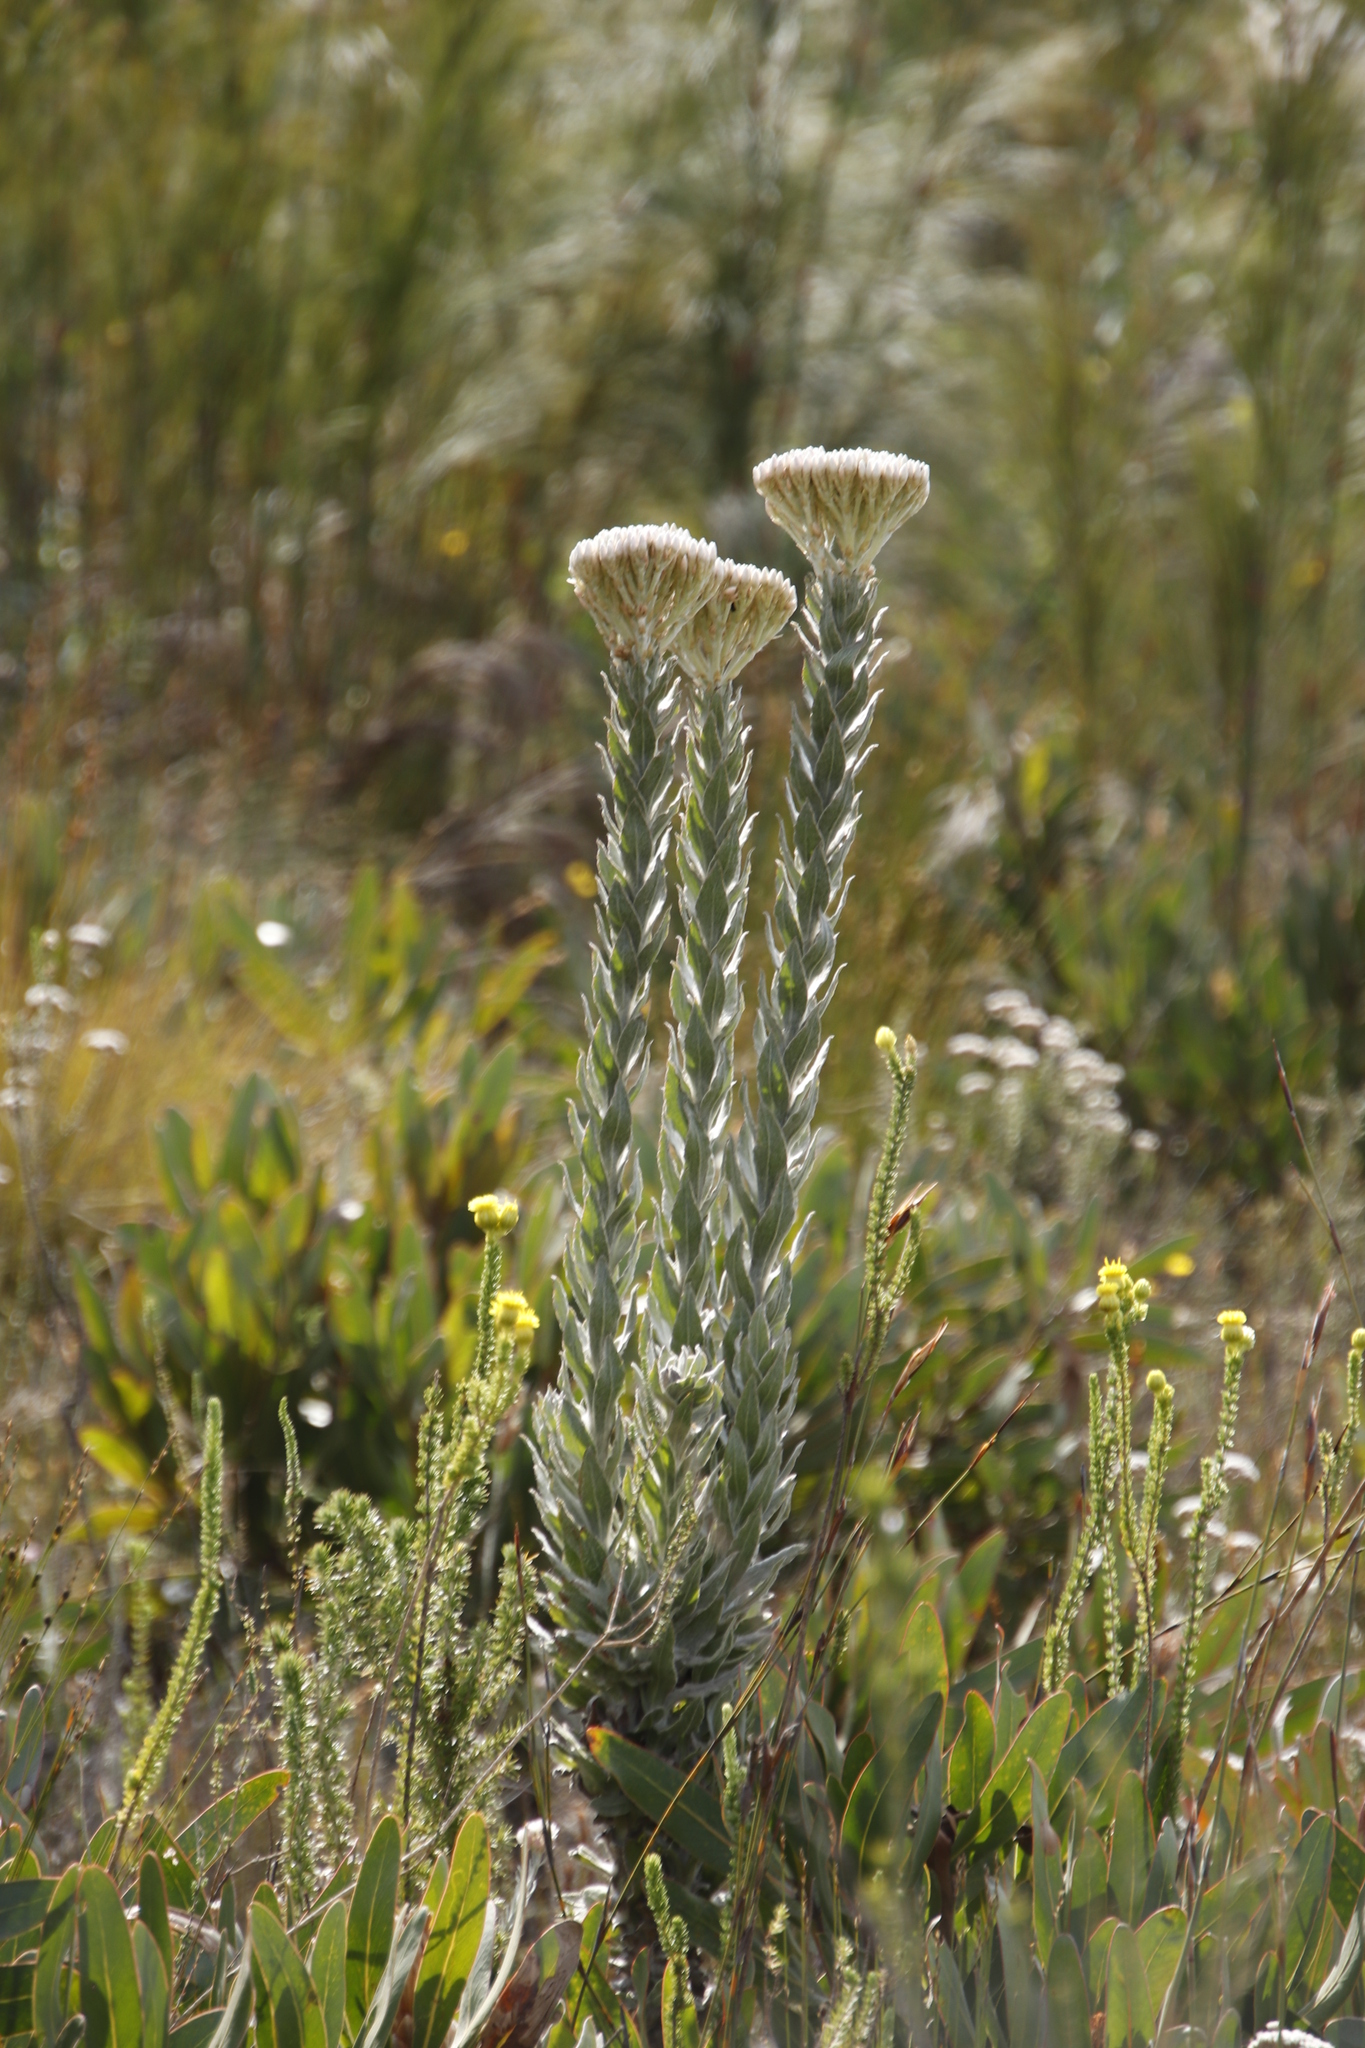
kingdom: Plantae
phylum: Tracheophyta
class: Magnoliopsida
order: Asterales
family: Asteraceae
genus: Syncarpha
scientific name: Syncarpha milleflora
